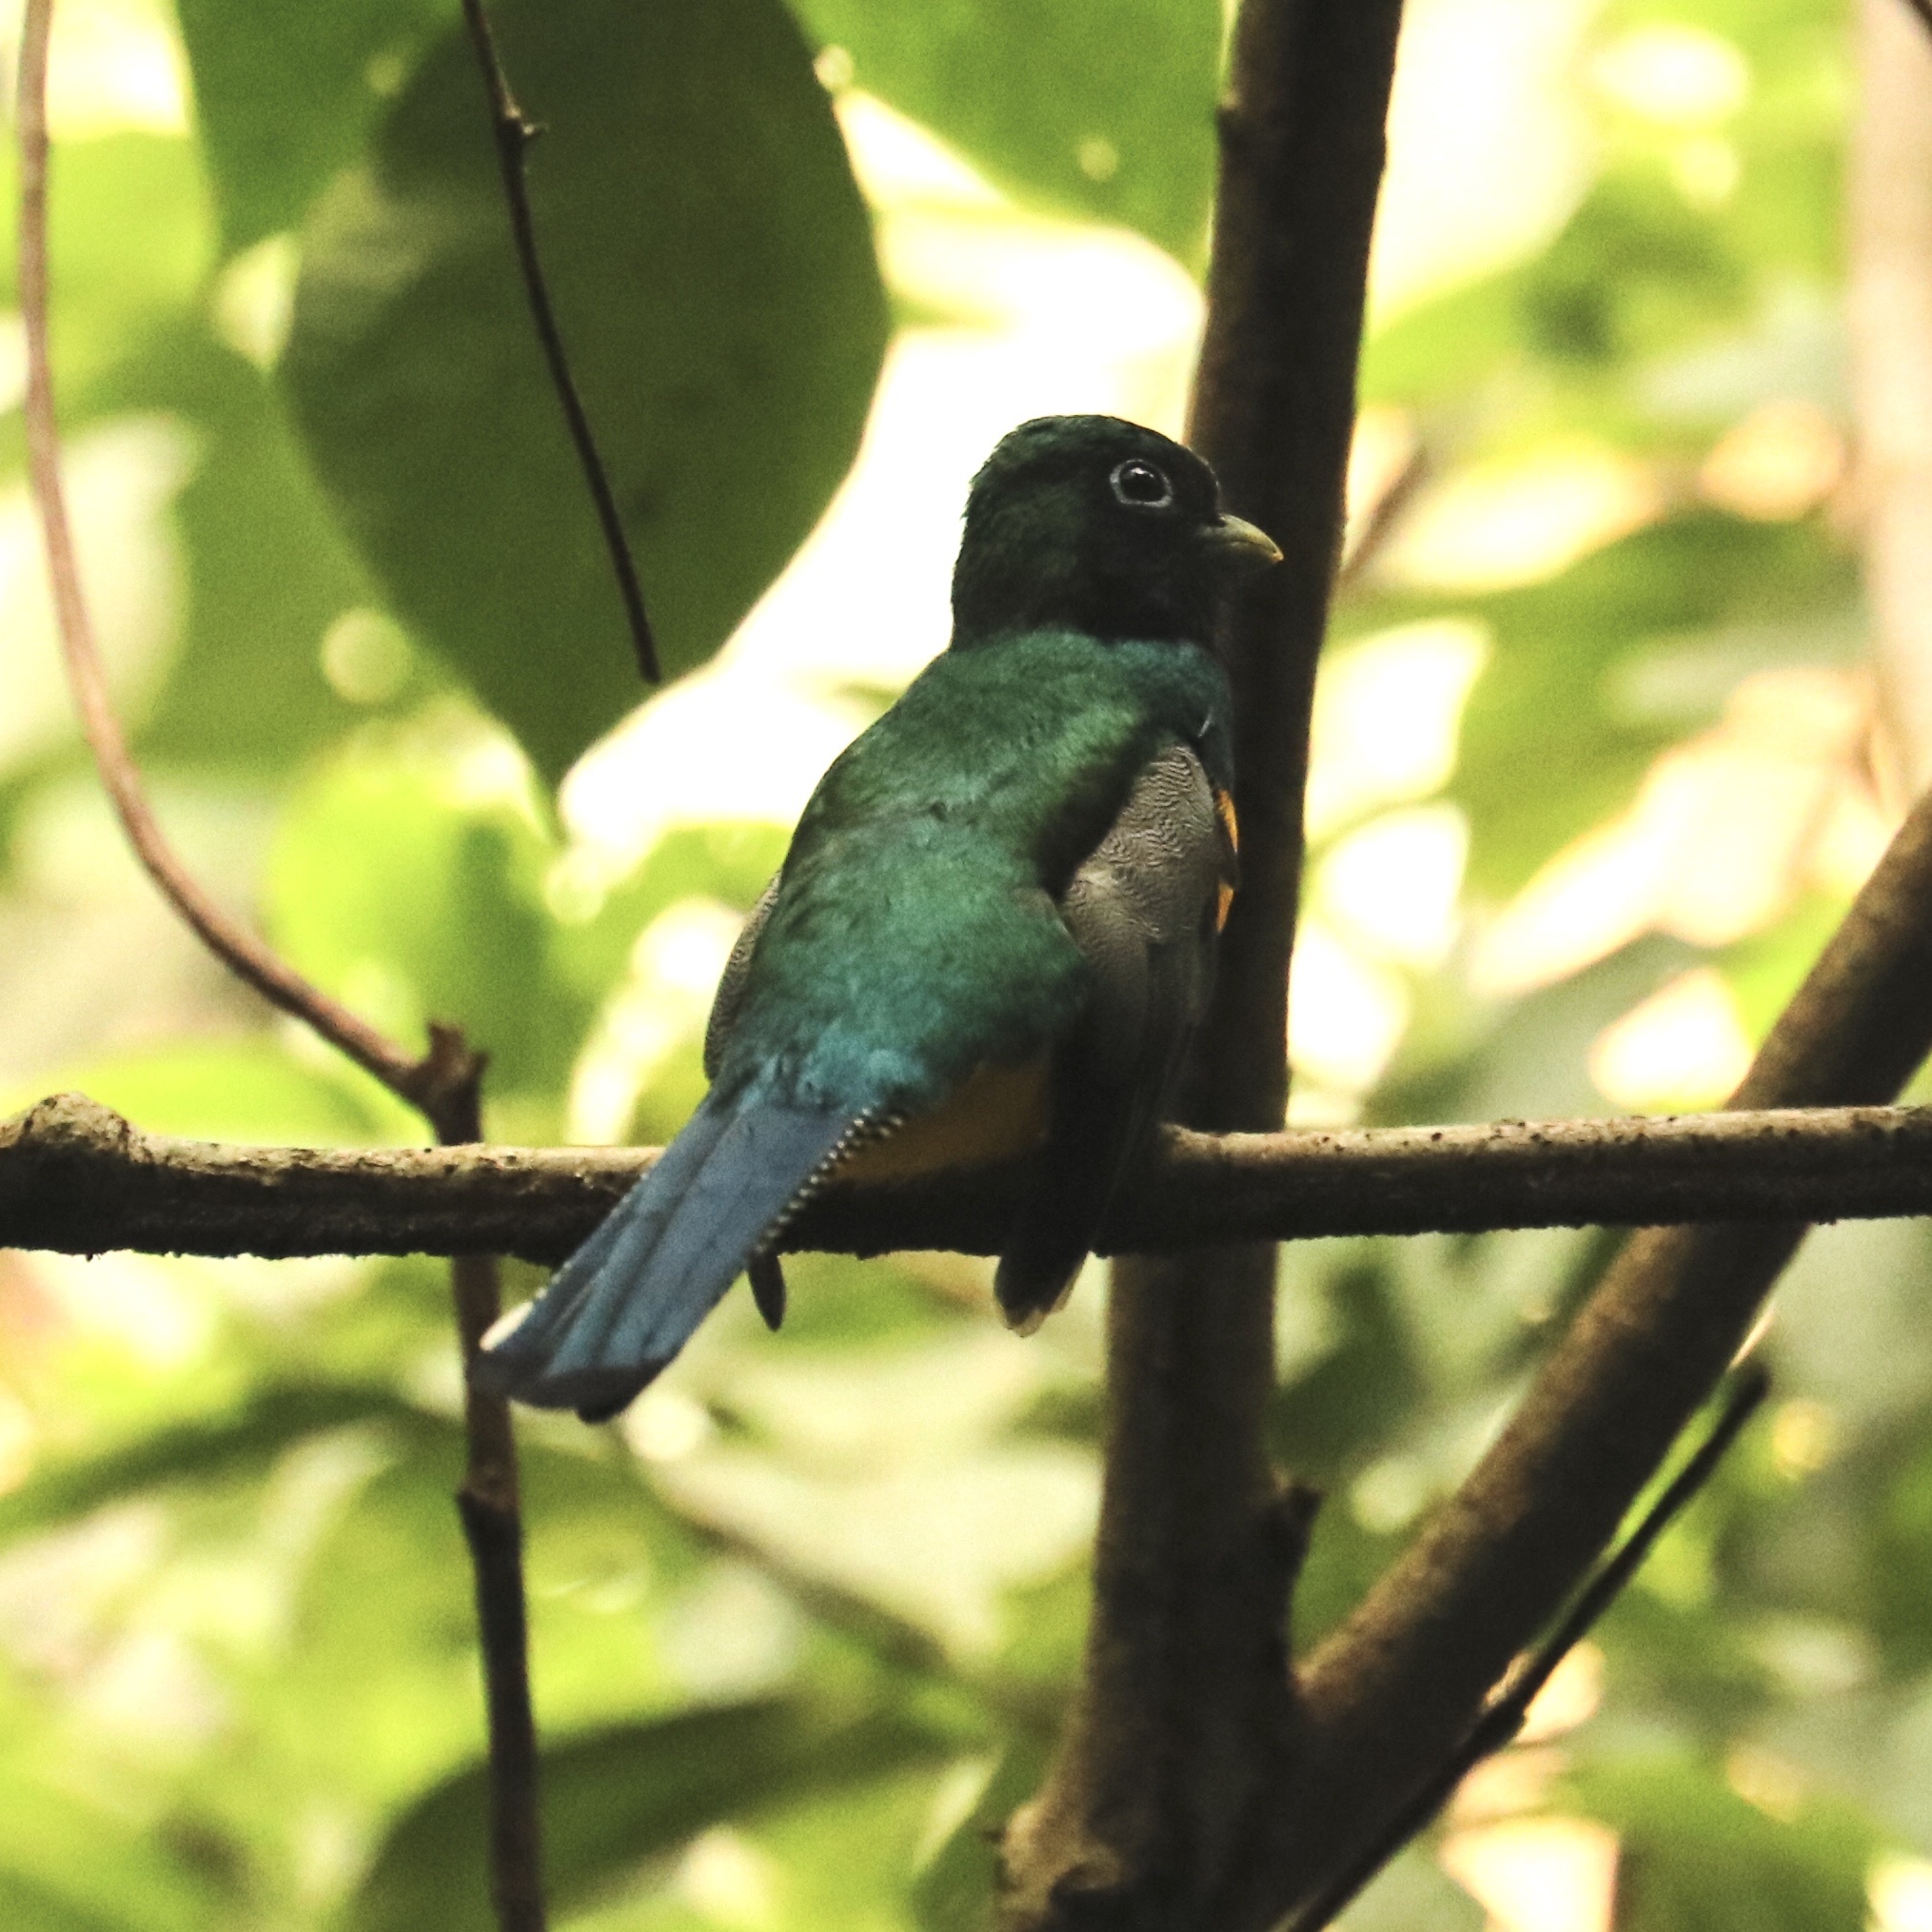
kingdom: Animalia
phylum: Chordata
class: Aves
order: Trogoniformes
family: Trogonidae
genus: Trogon
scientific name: Trogon rufus
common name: Black-throated trogon
